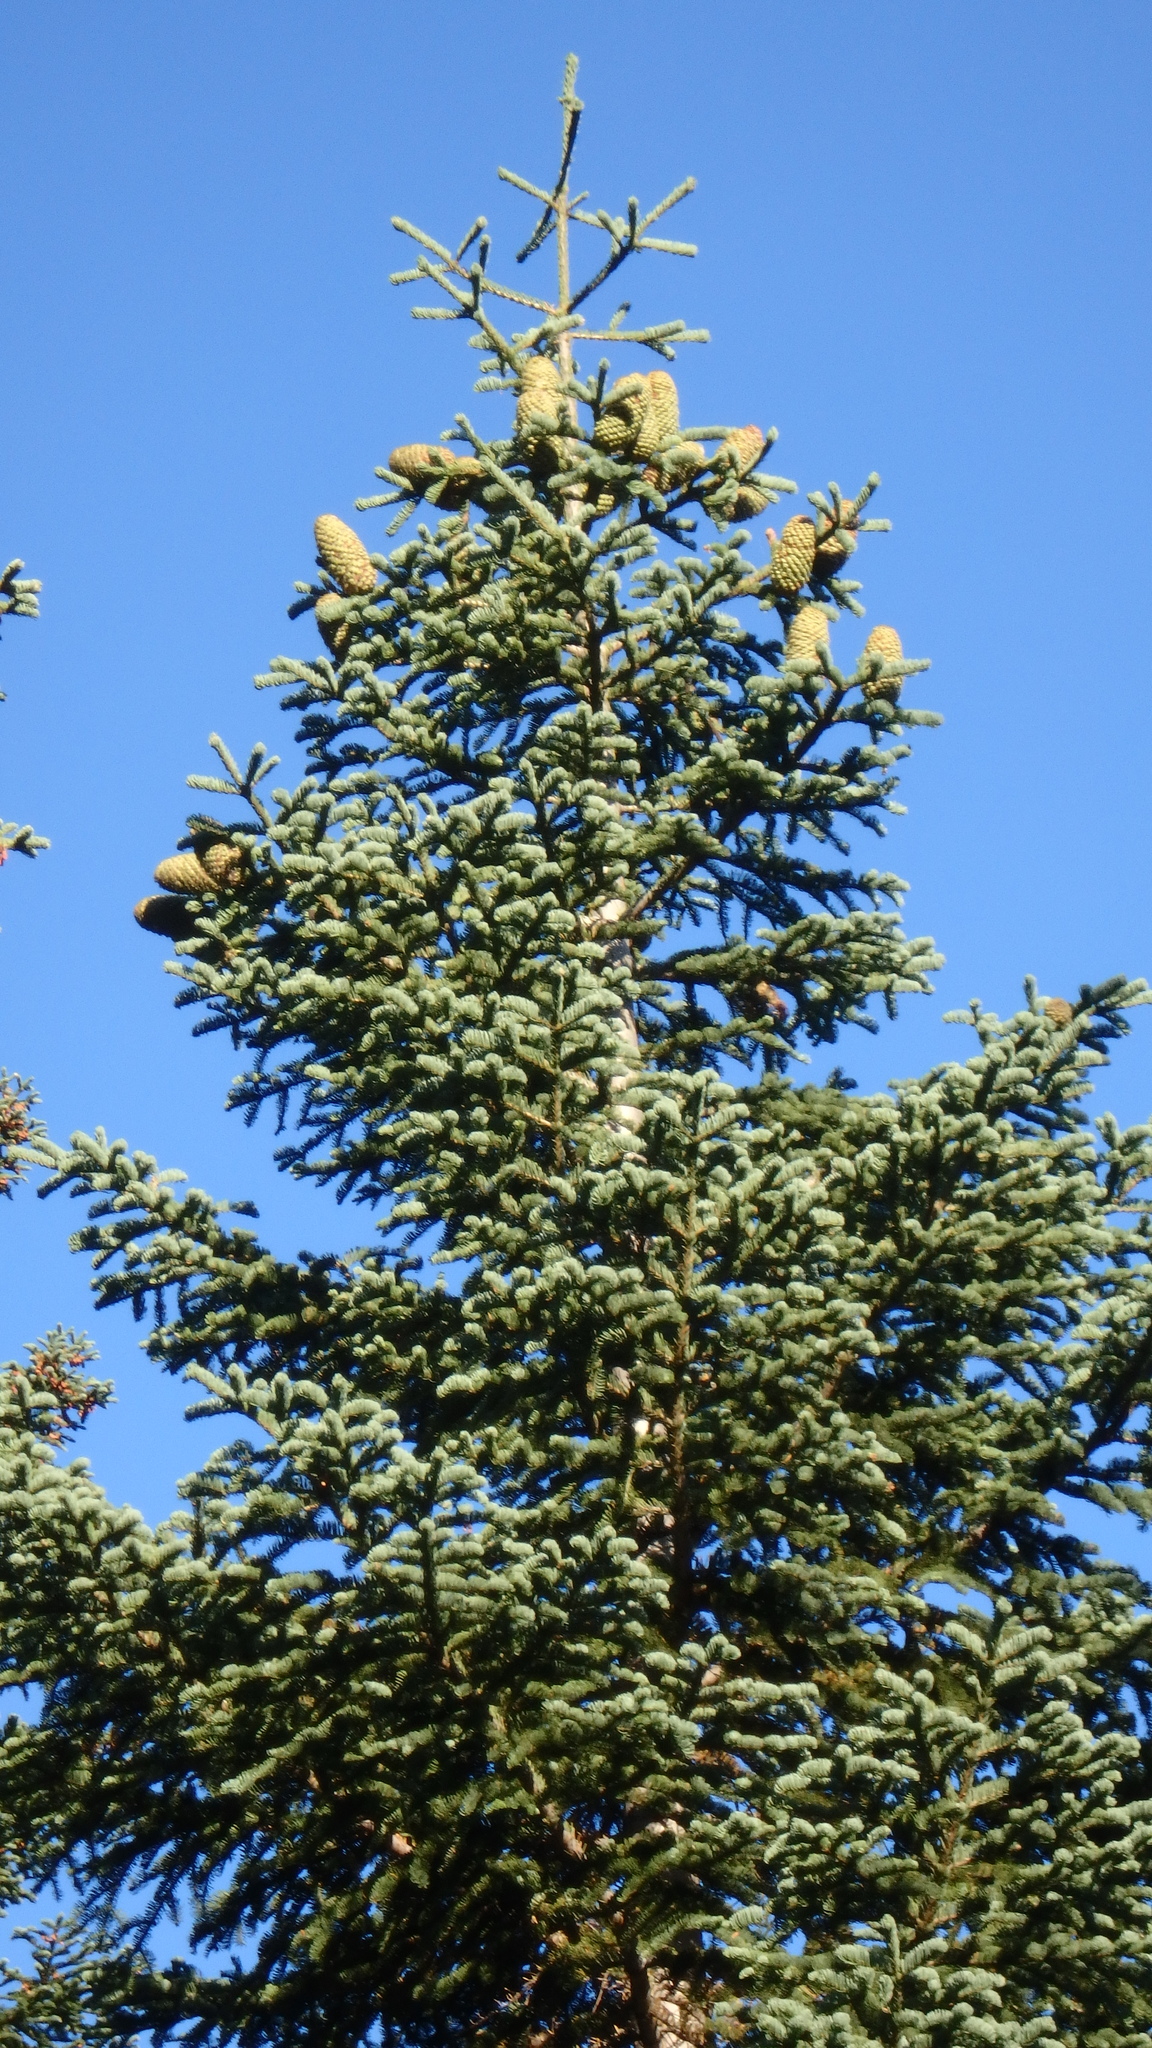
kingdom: Plantae
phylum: Tracheophyta
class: Pinopsida
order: Pinales
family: Pinaceae
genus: Abies
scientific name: Abies magnifica bis
